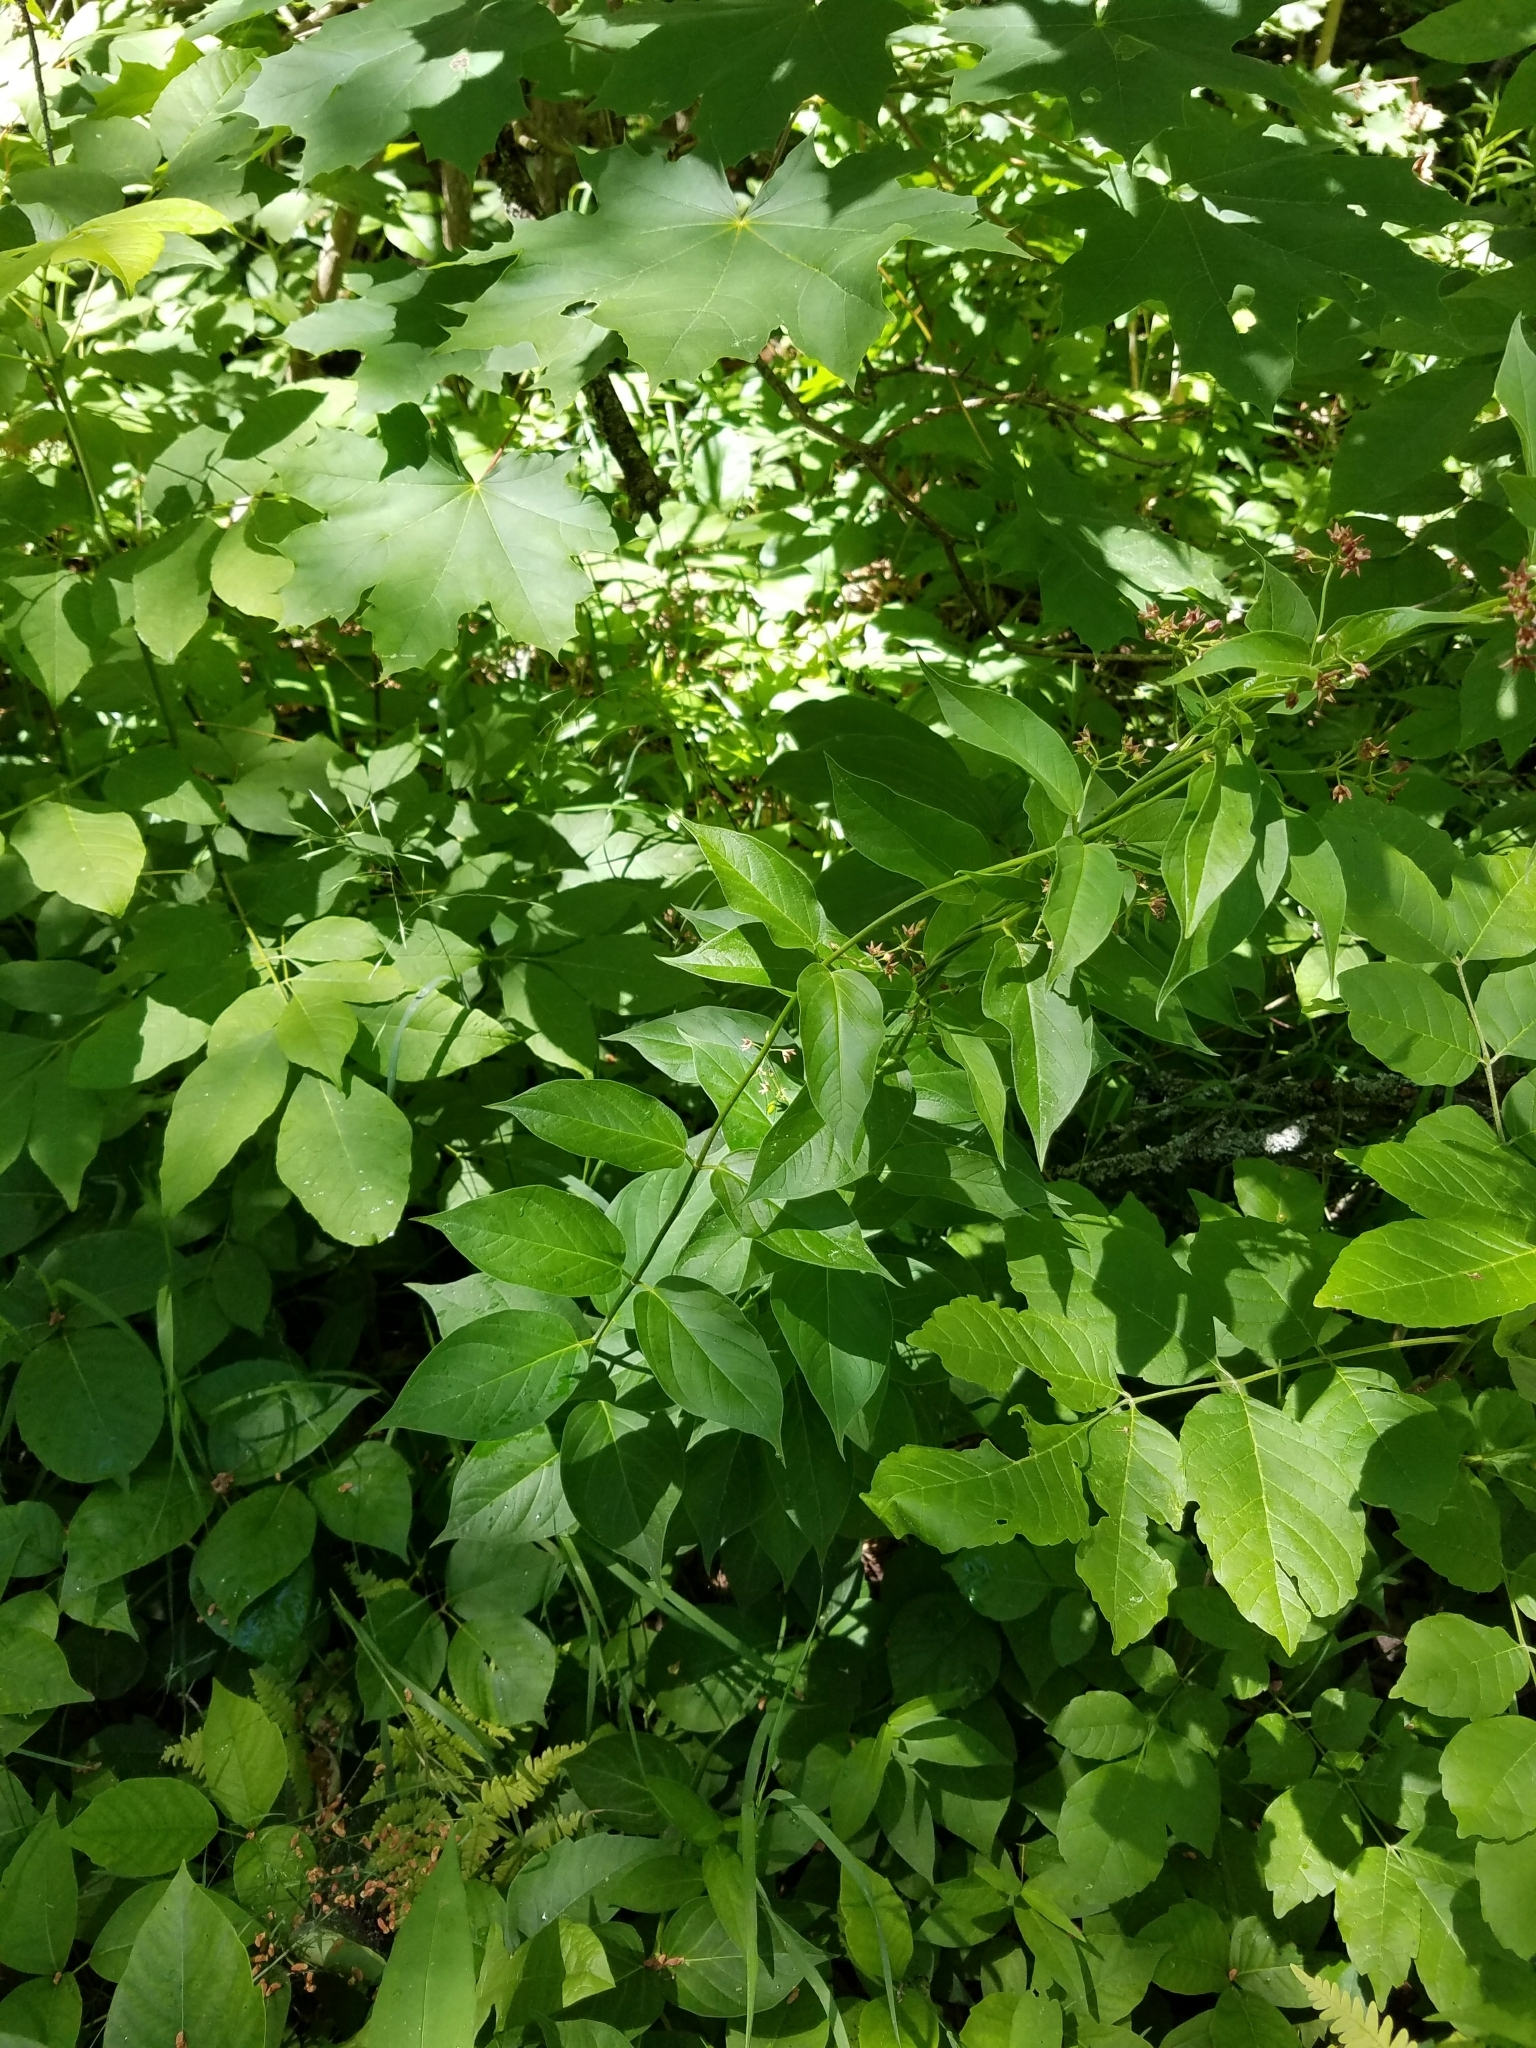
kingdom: Plantae
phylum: Tracheophyta
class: Magnoliopsida
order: Gentianales
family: Apocynaceae
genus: Vincetoxicum
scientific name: Vincetoxicum rossicum
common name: Dog-strangling vine
